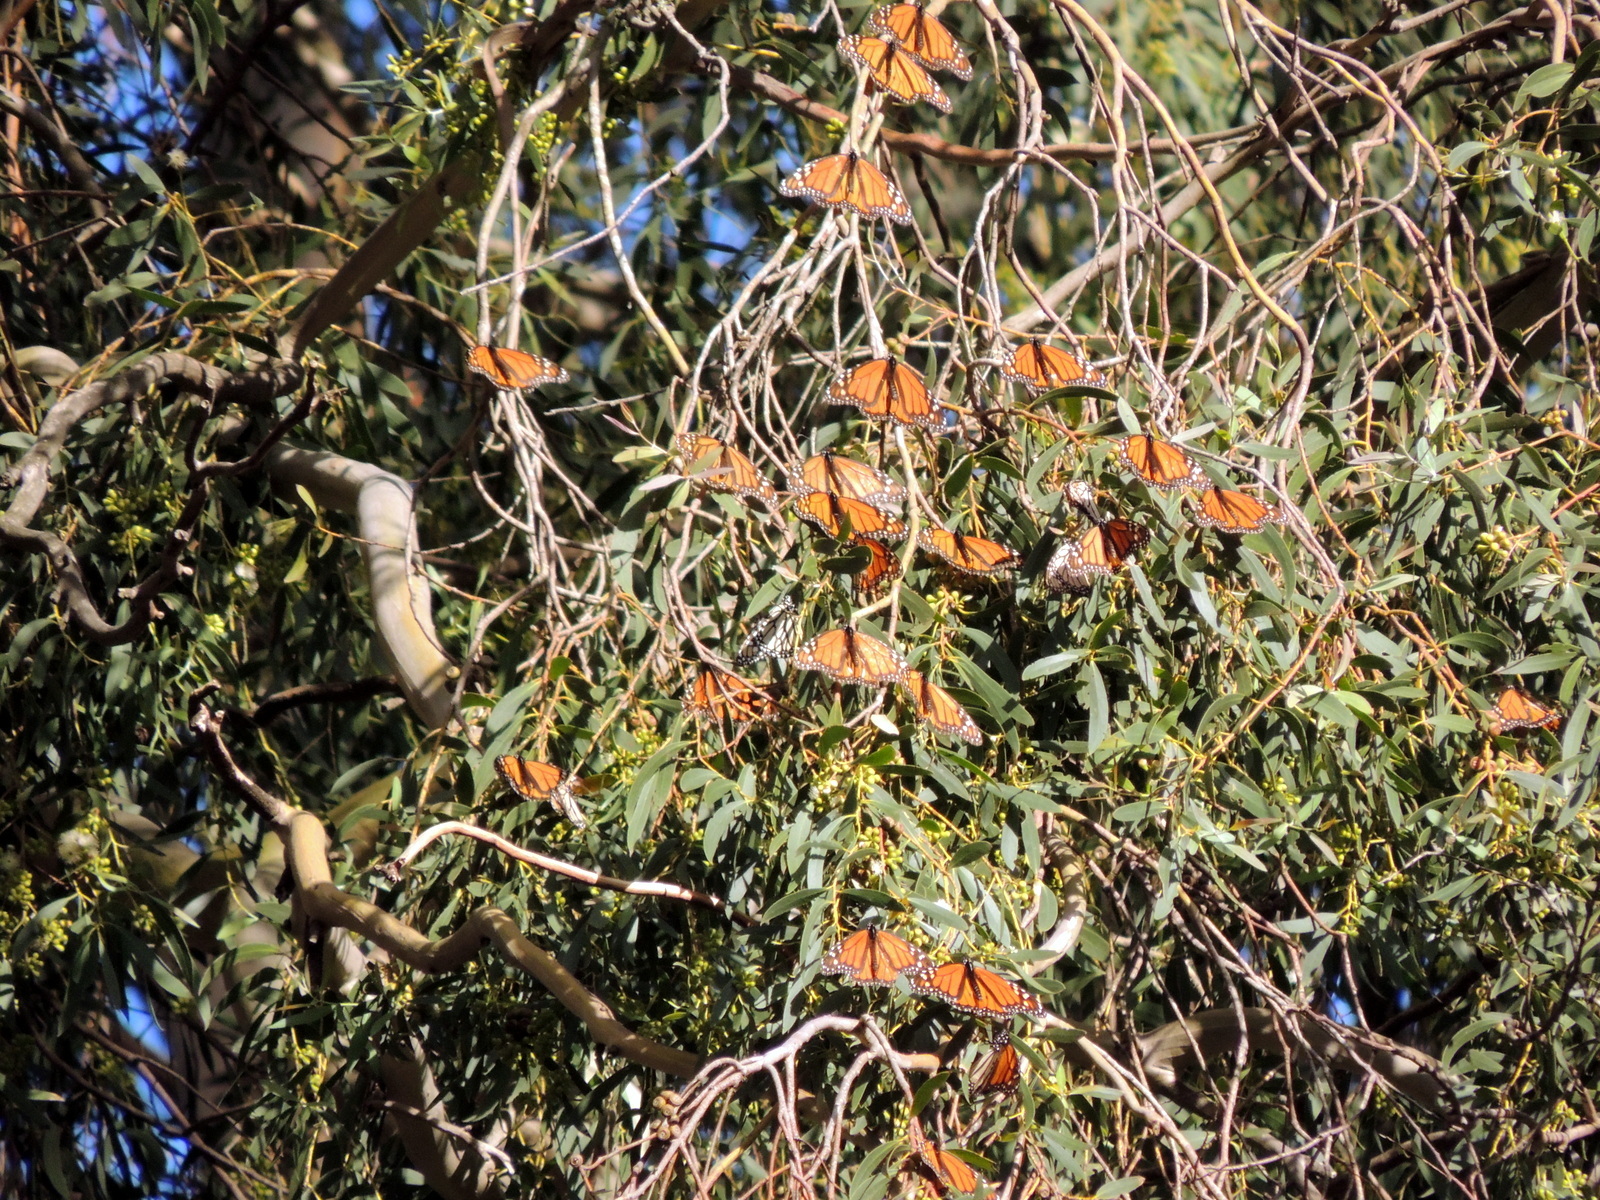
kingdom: Animalia
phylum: Arthropoda
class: Insecta
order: Lepidoptera
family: Nymphalidae
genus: Danaus
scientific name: Danaus plexippus
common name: Monarch
